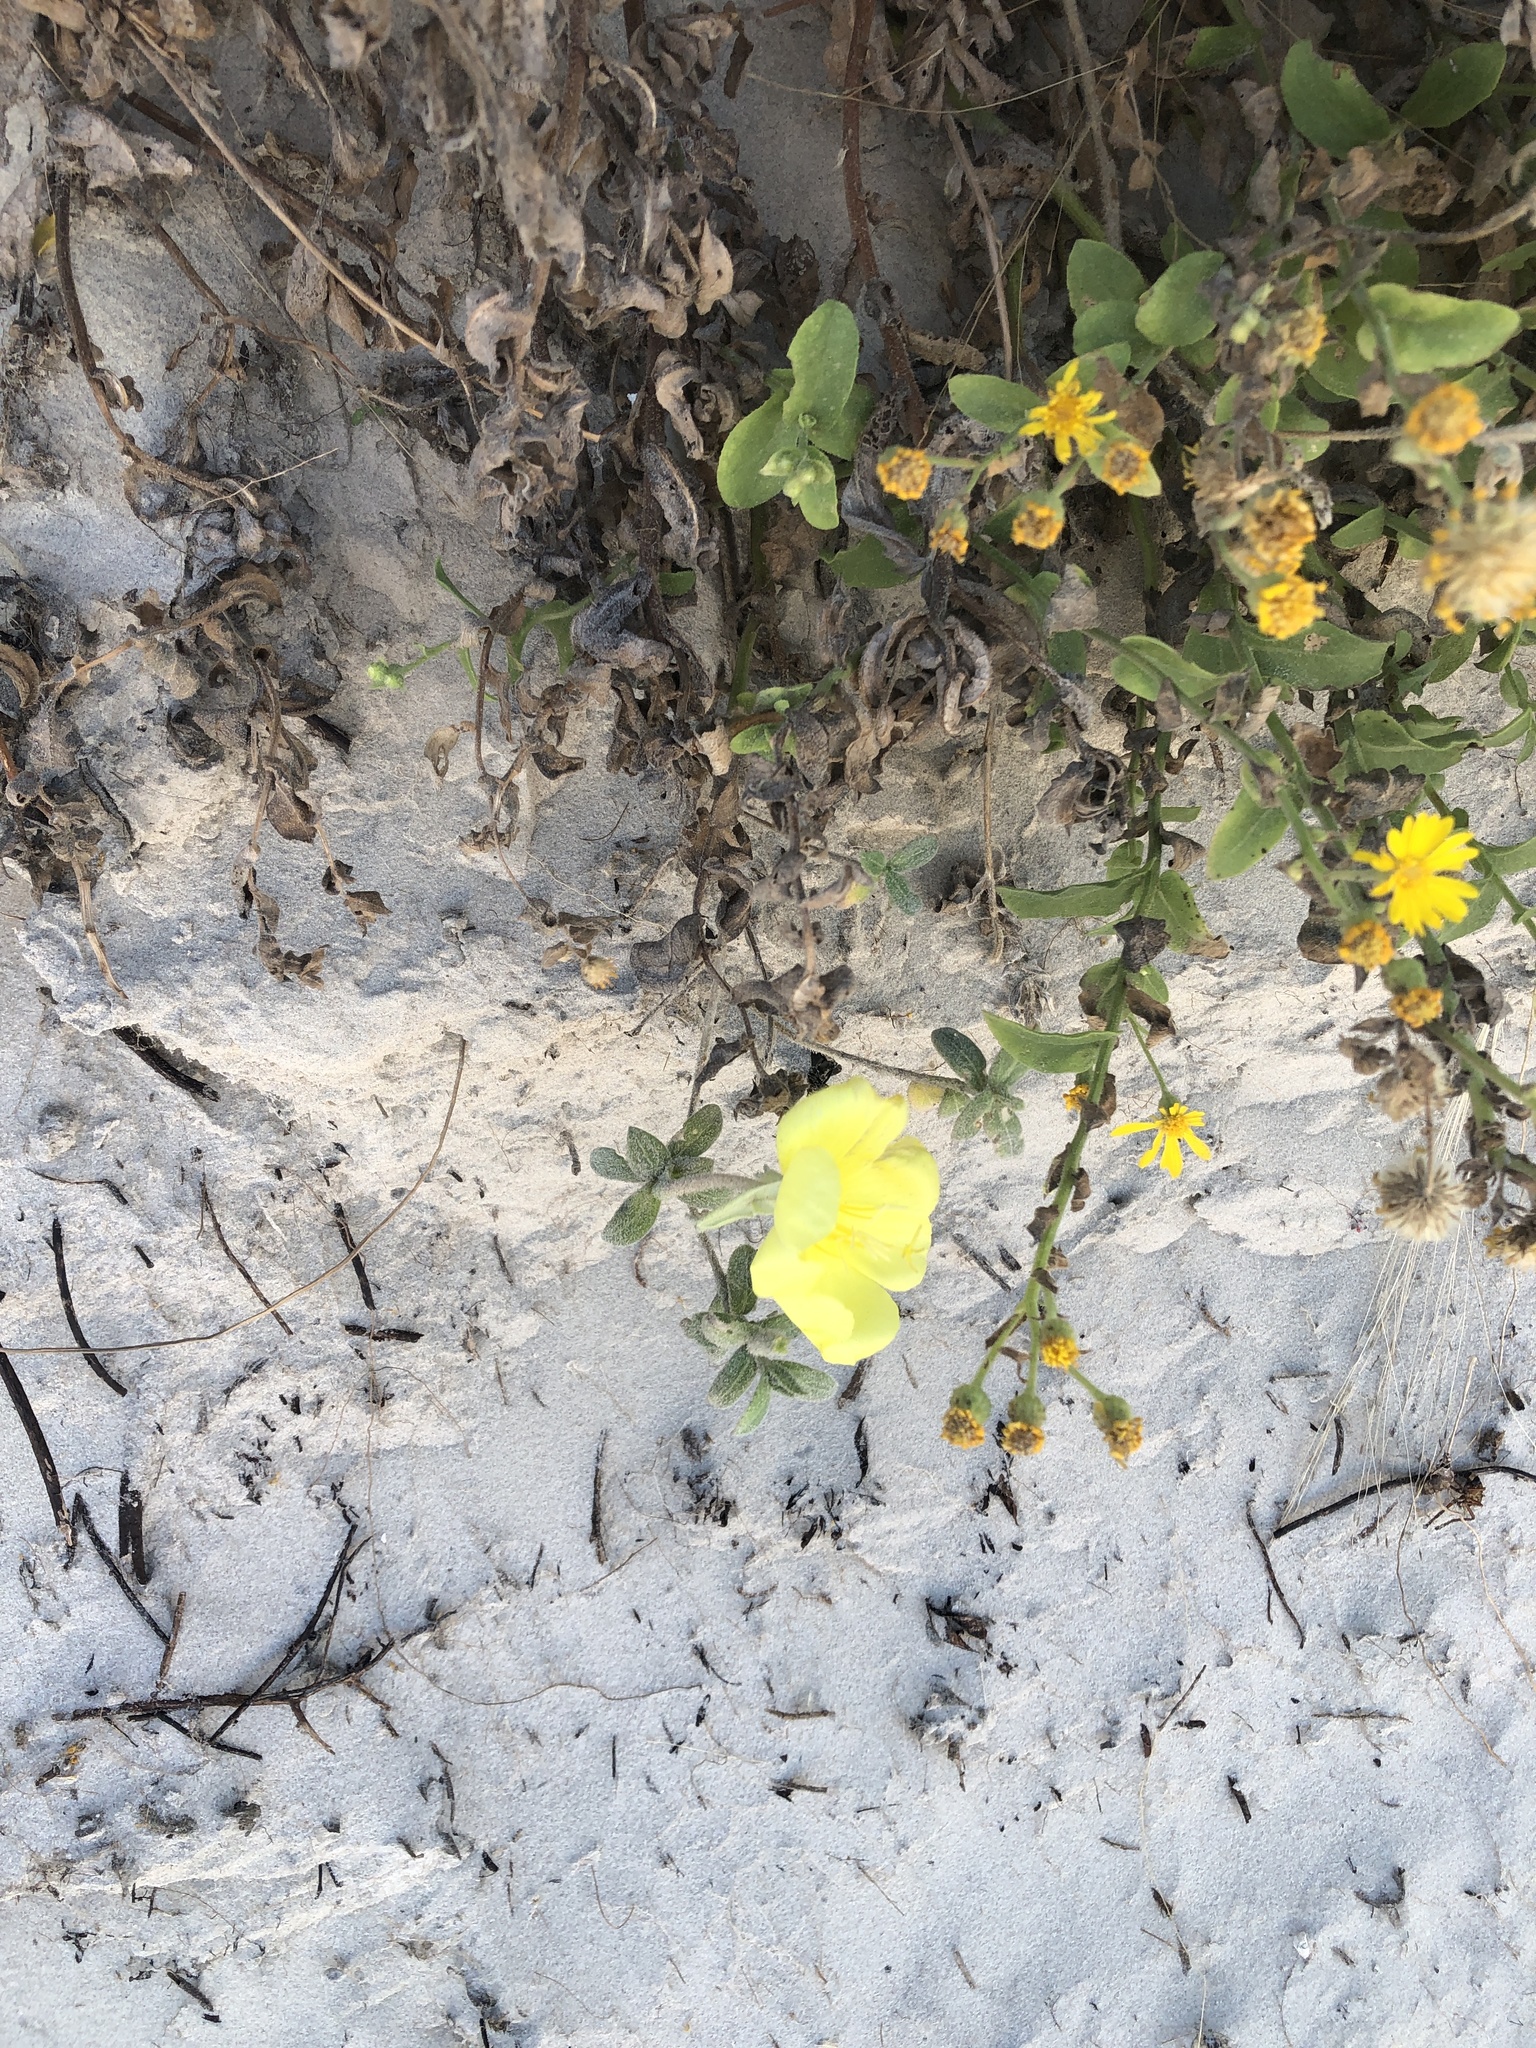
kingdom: Plantae
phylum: Tracheophyta
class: Magnoliopsida
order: Myrtales
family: Onagraceae
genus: Oenothera
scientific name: Oenothera drummondii
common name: Beach evening-primrose
